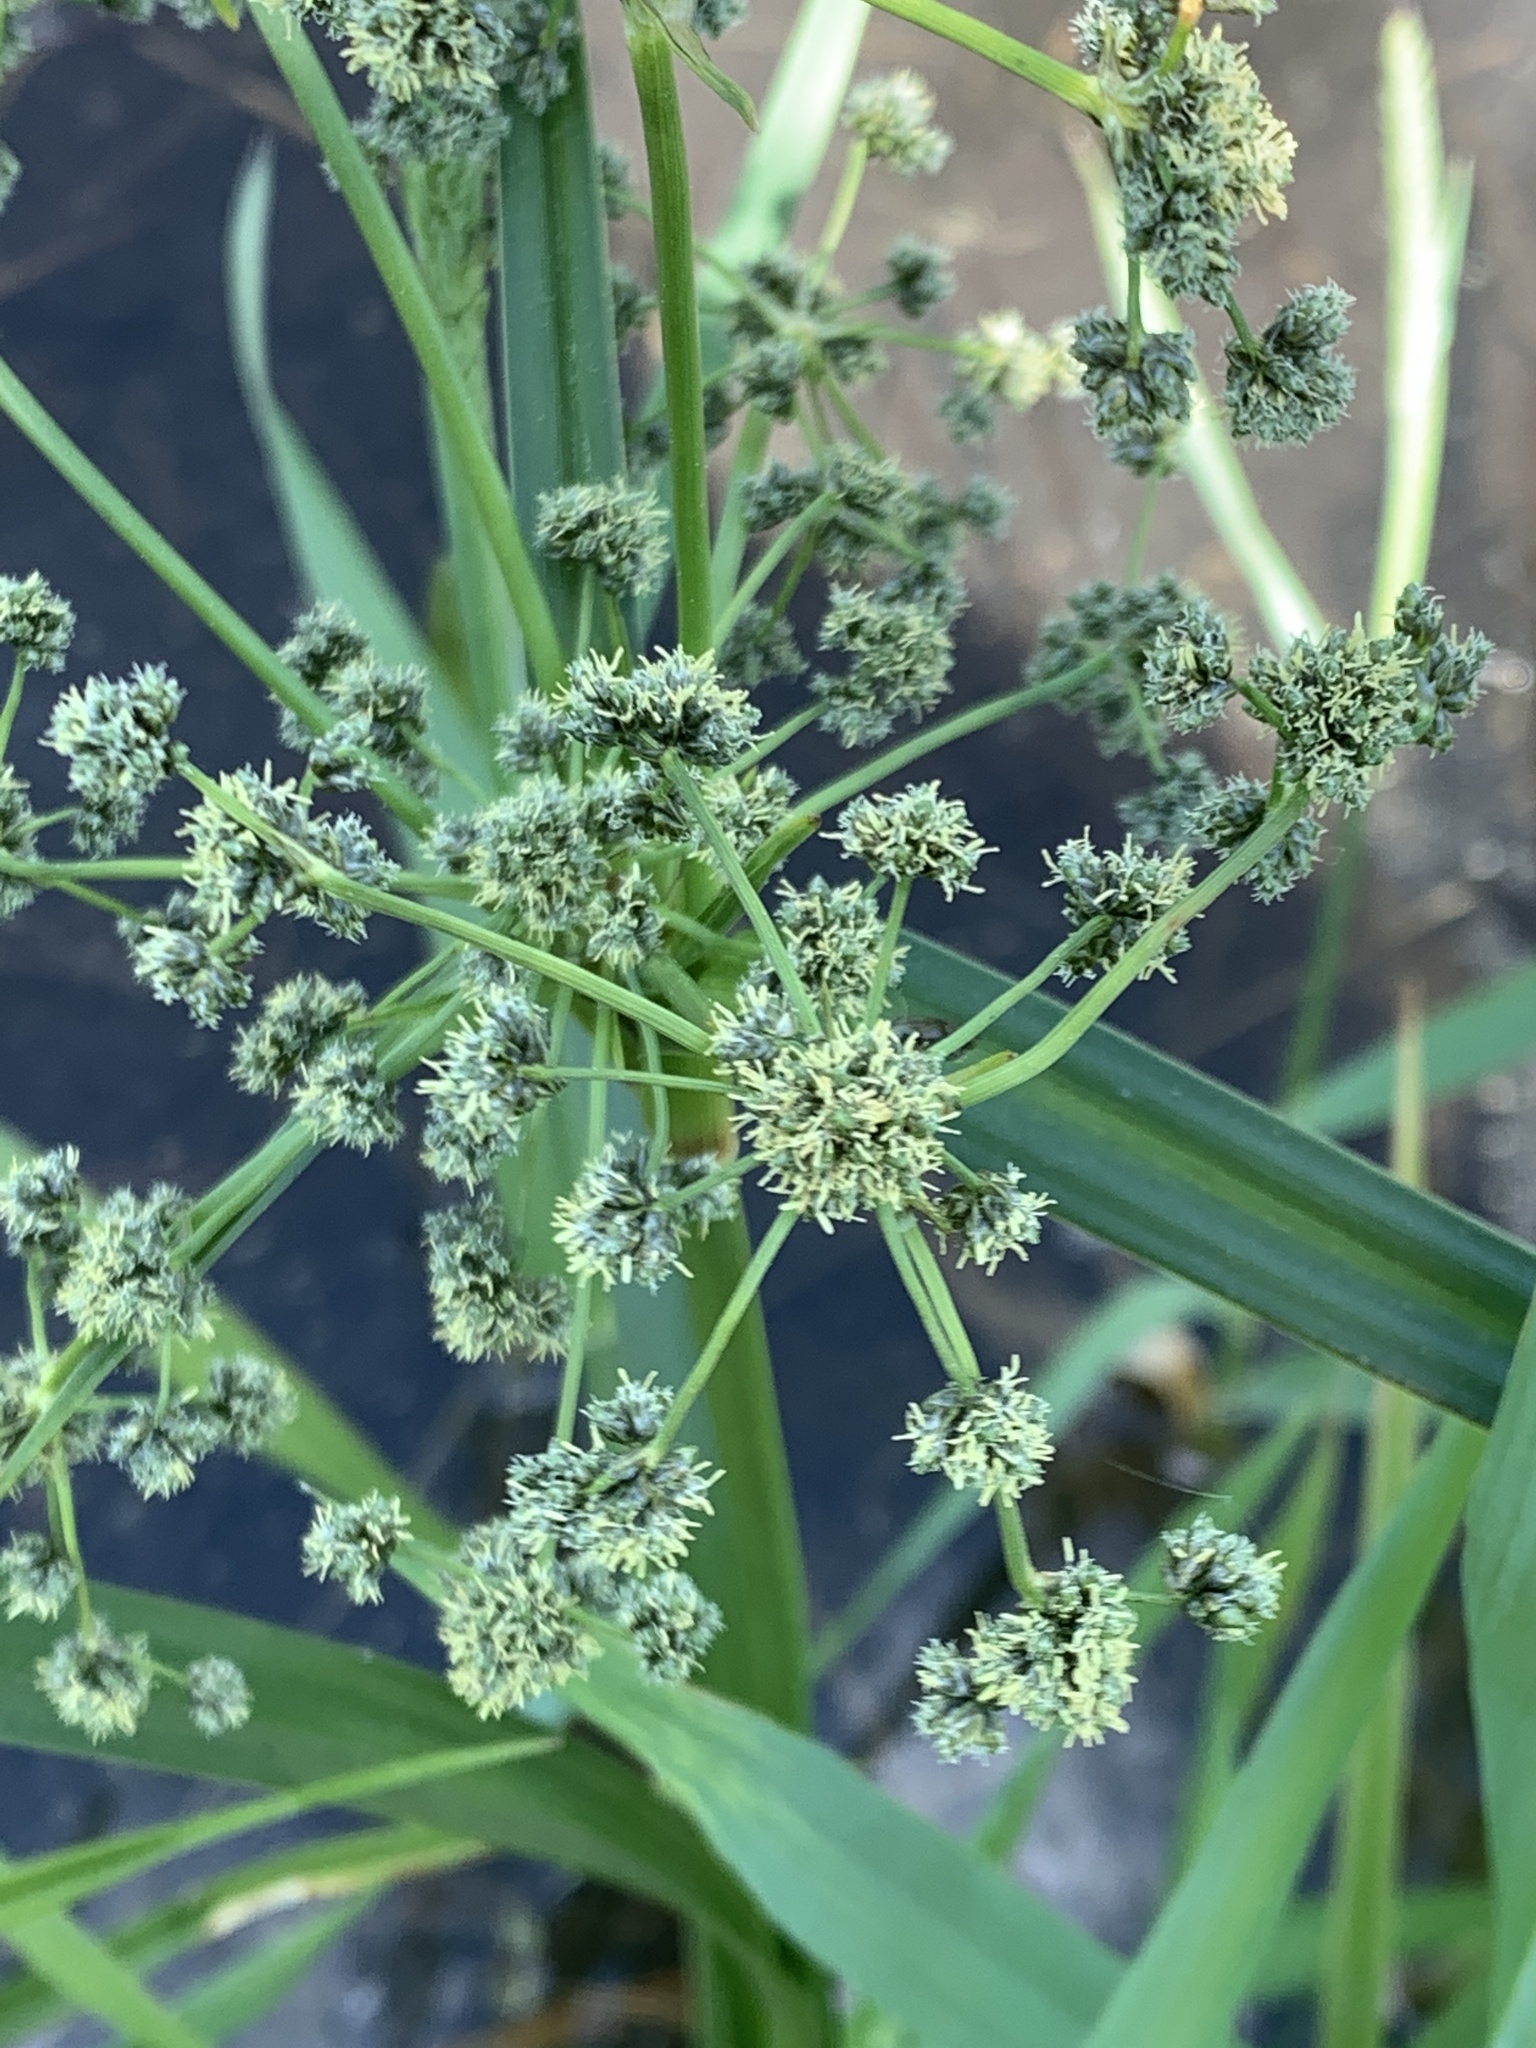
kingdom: Plantae
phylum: Tracheophyta
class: Liliopsida
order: Poales
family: Cyperaceae
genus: Scirpus
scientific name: Scirpus microcarpus
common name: Panicled bulrush
